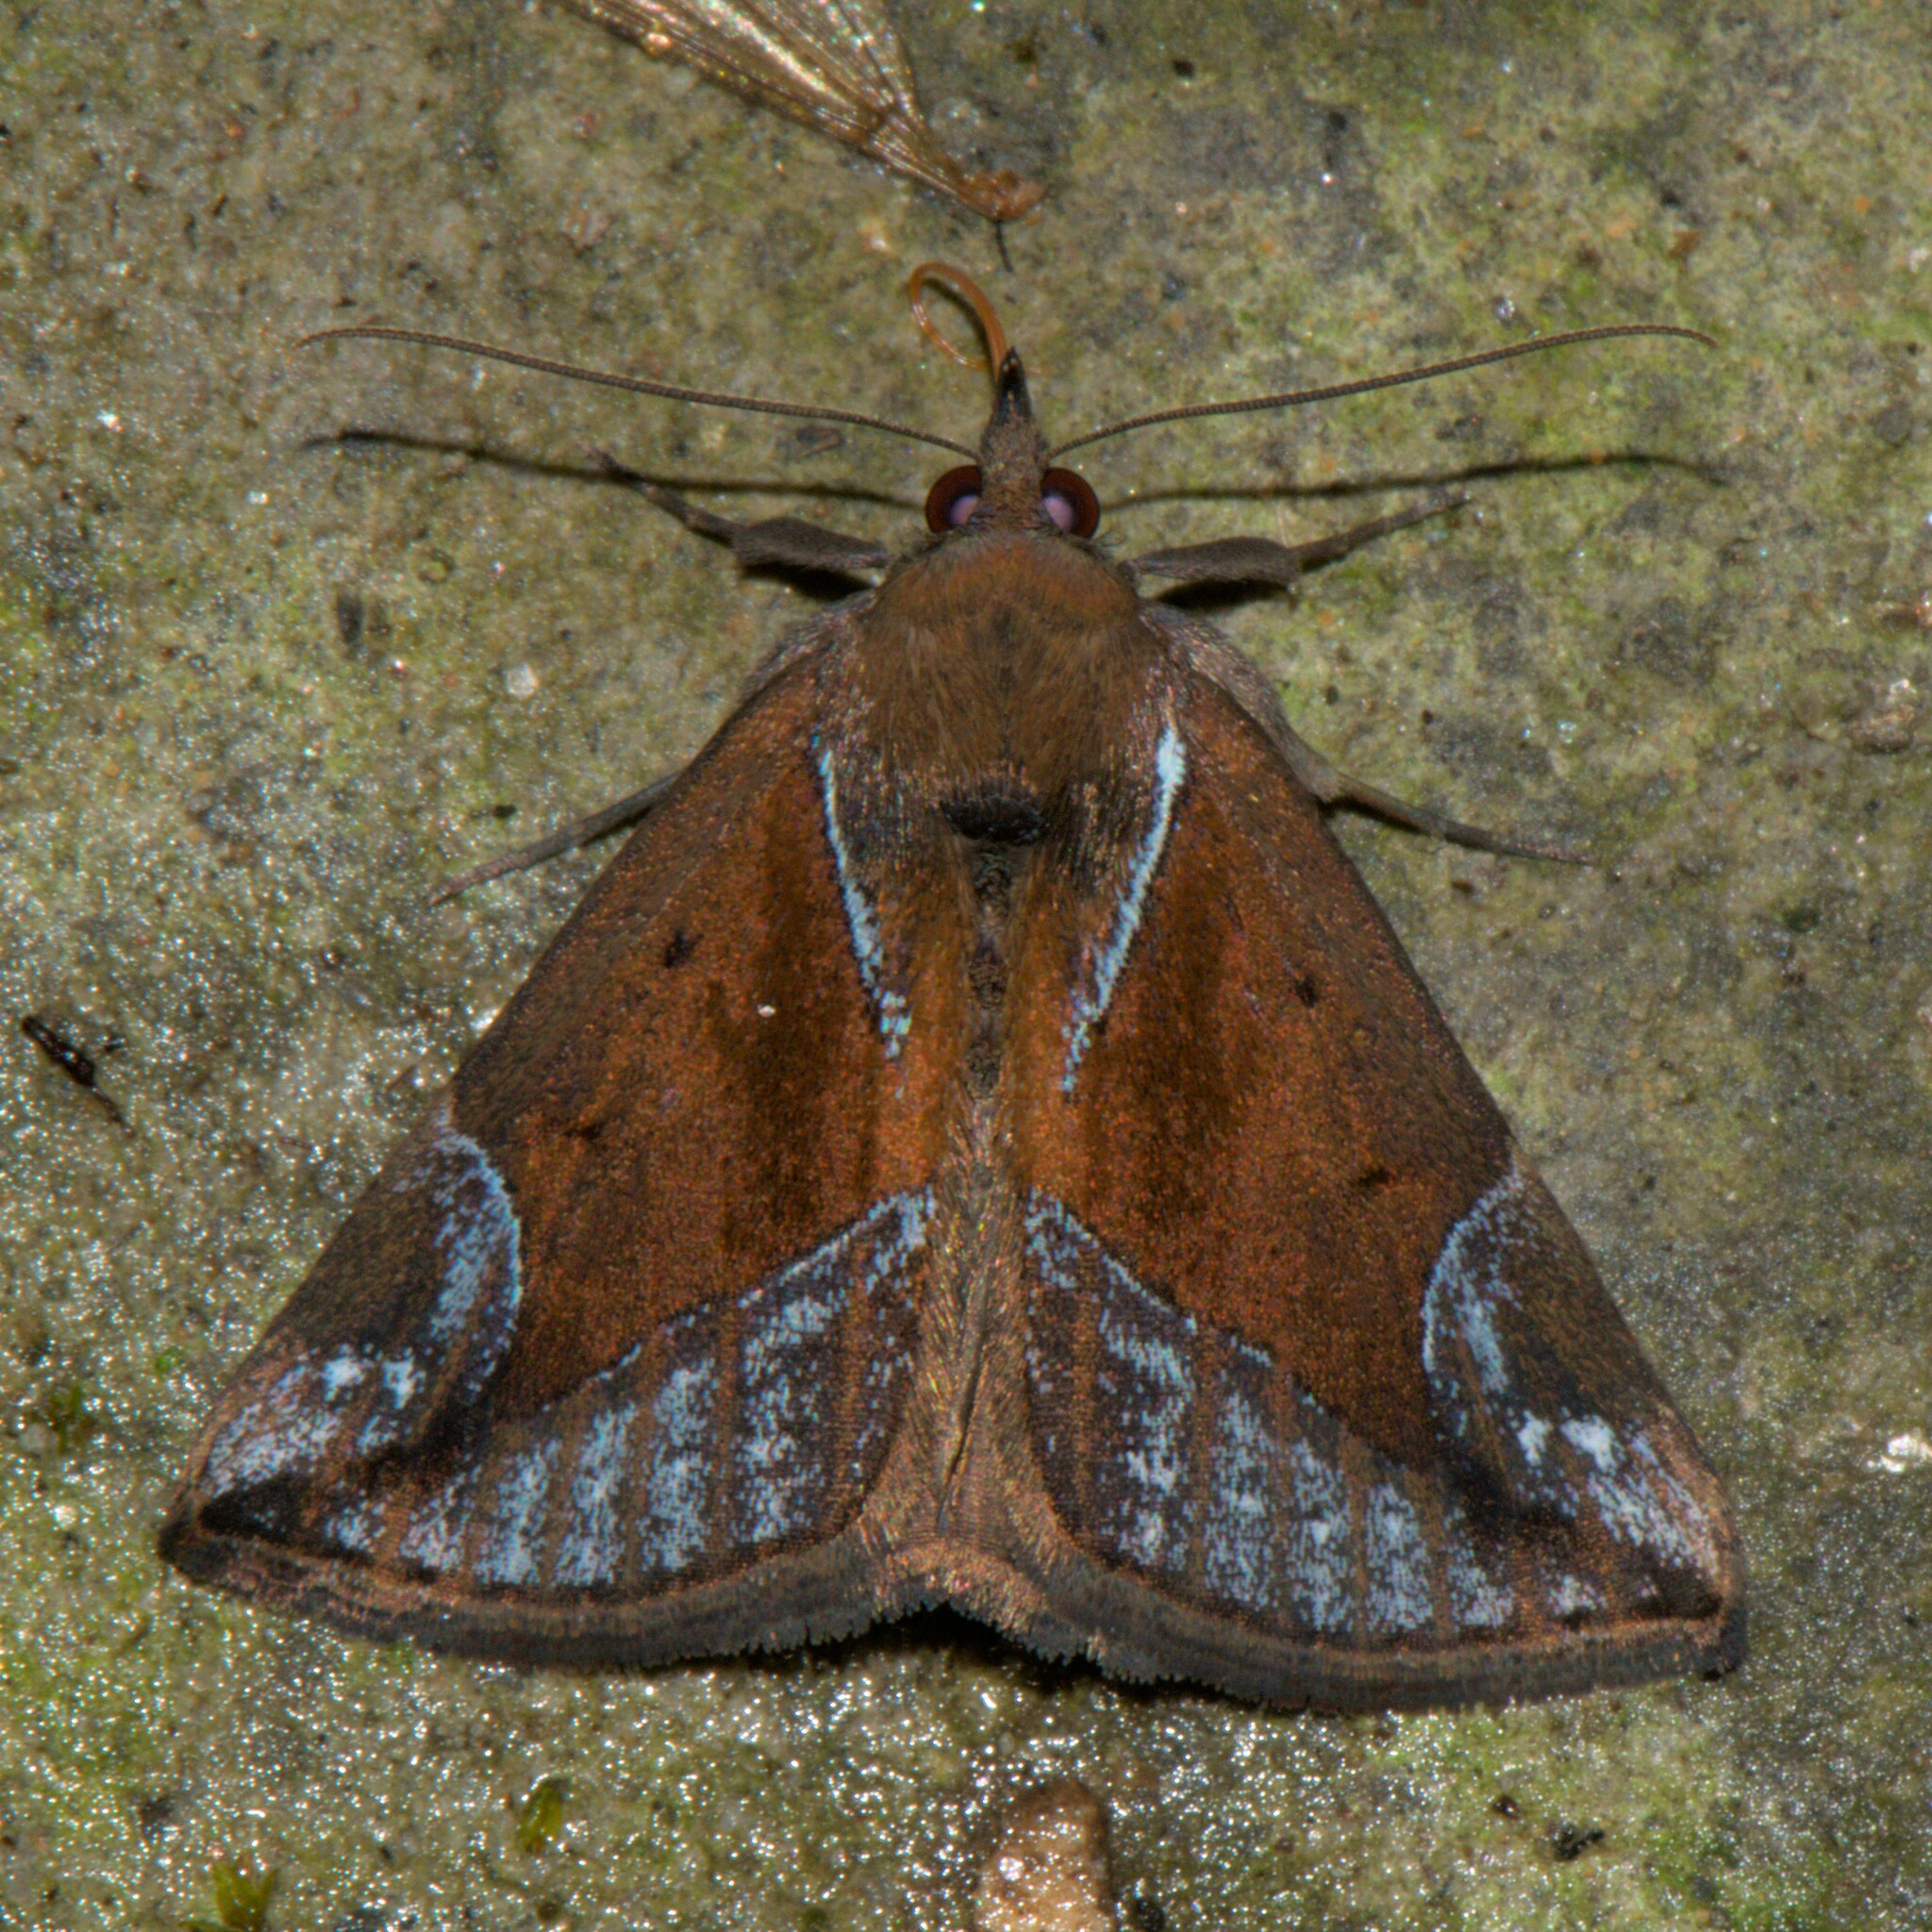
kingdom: Animalia
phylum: Arthropoda
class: Insecta
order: Lepidoptera
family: Erebidae
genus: Hypena
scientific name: Hypena rhombalis
